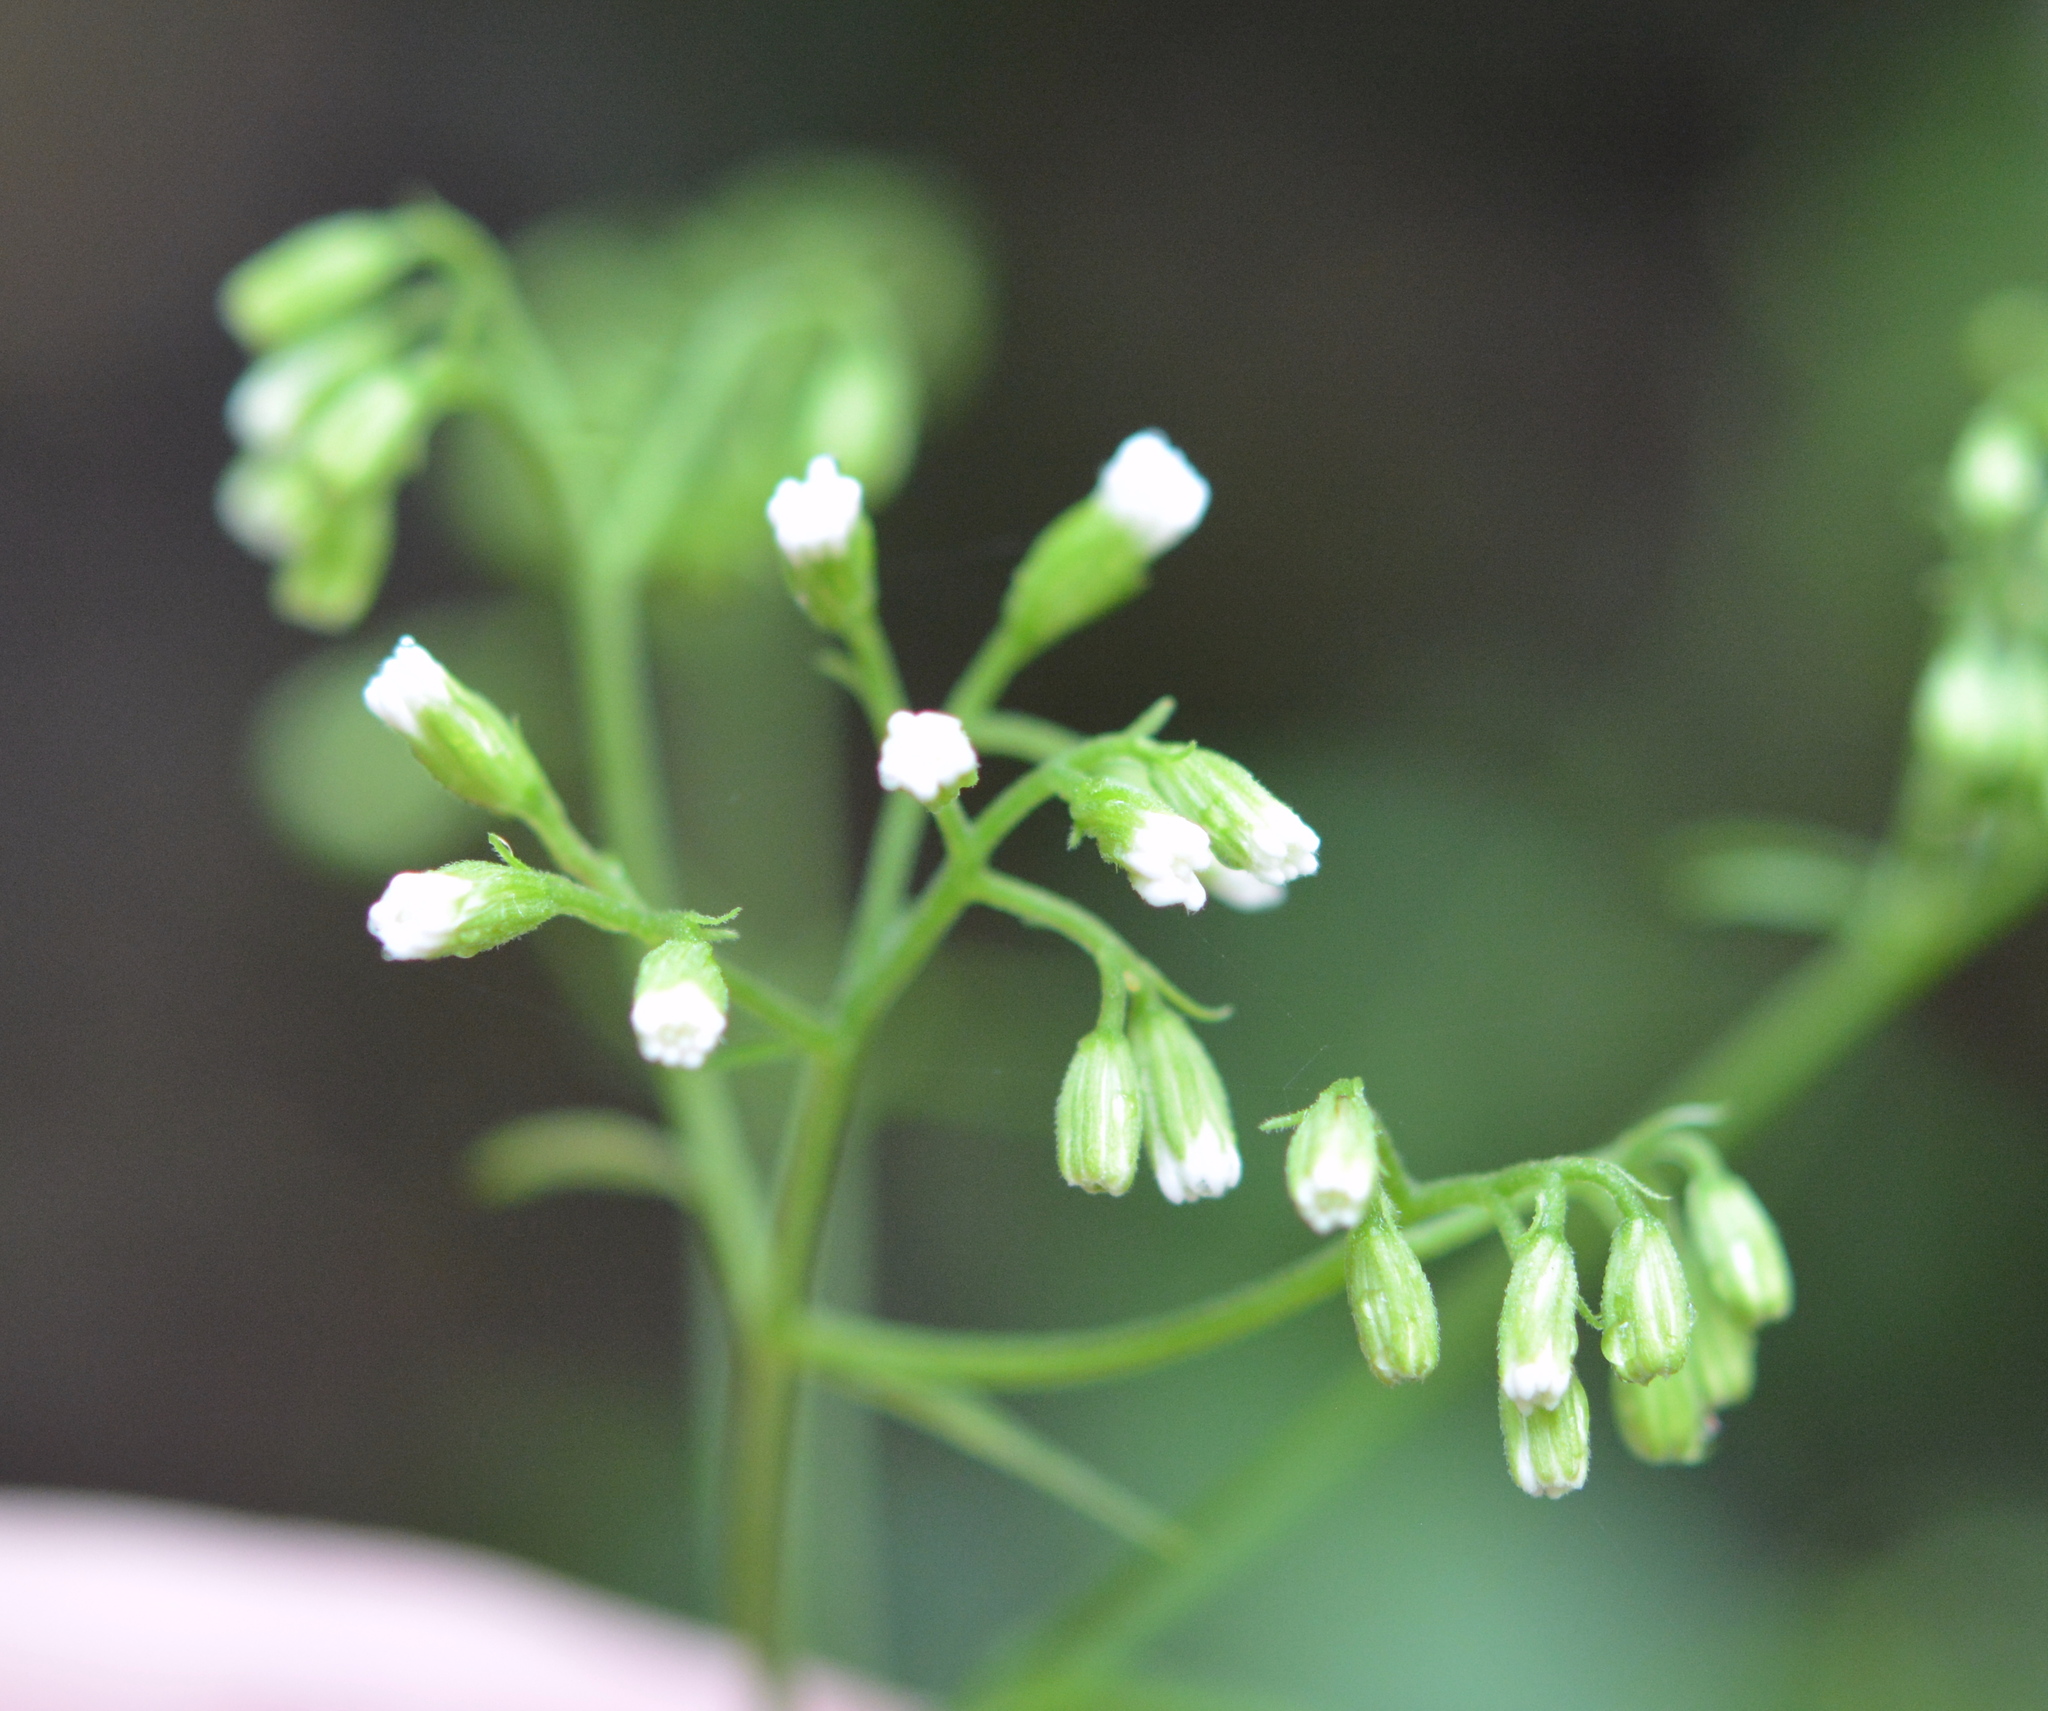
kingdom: Plantae
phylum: Tracheophyta
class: Magnoliopsida
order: Asterales
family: Asteraceae
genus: Ageratina
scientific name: Ageratina altissima
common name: White snakeroot
